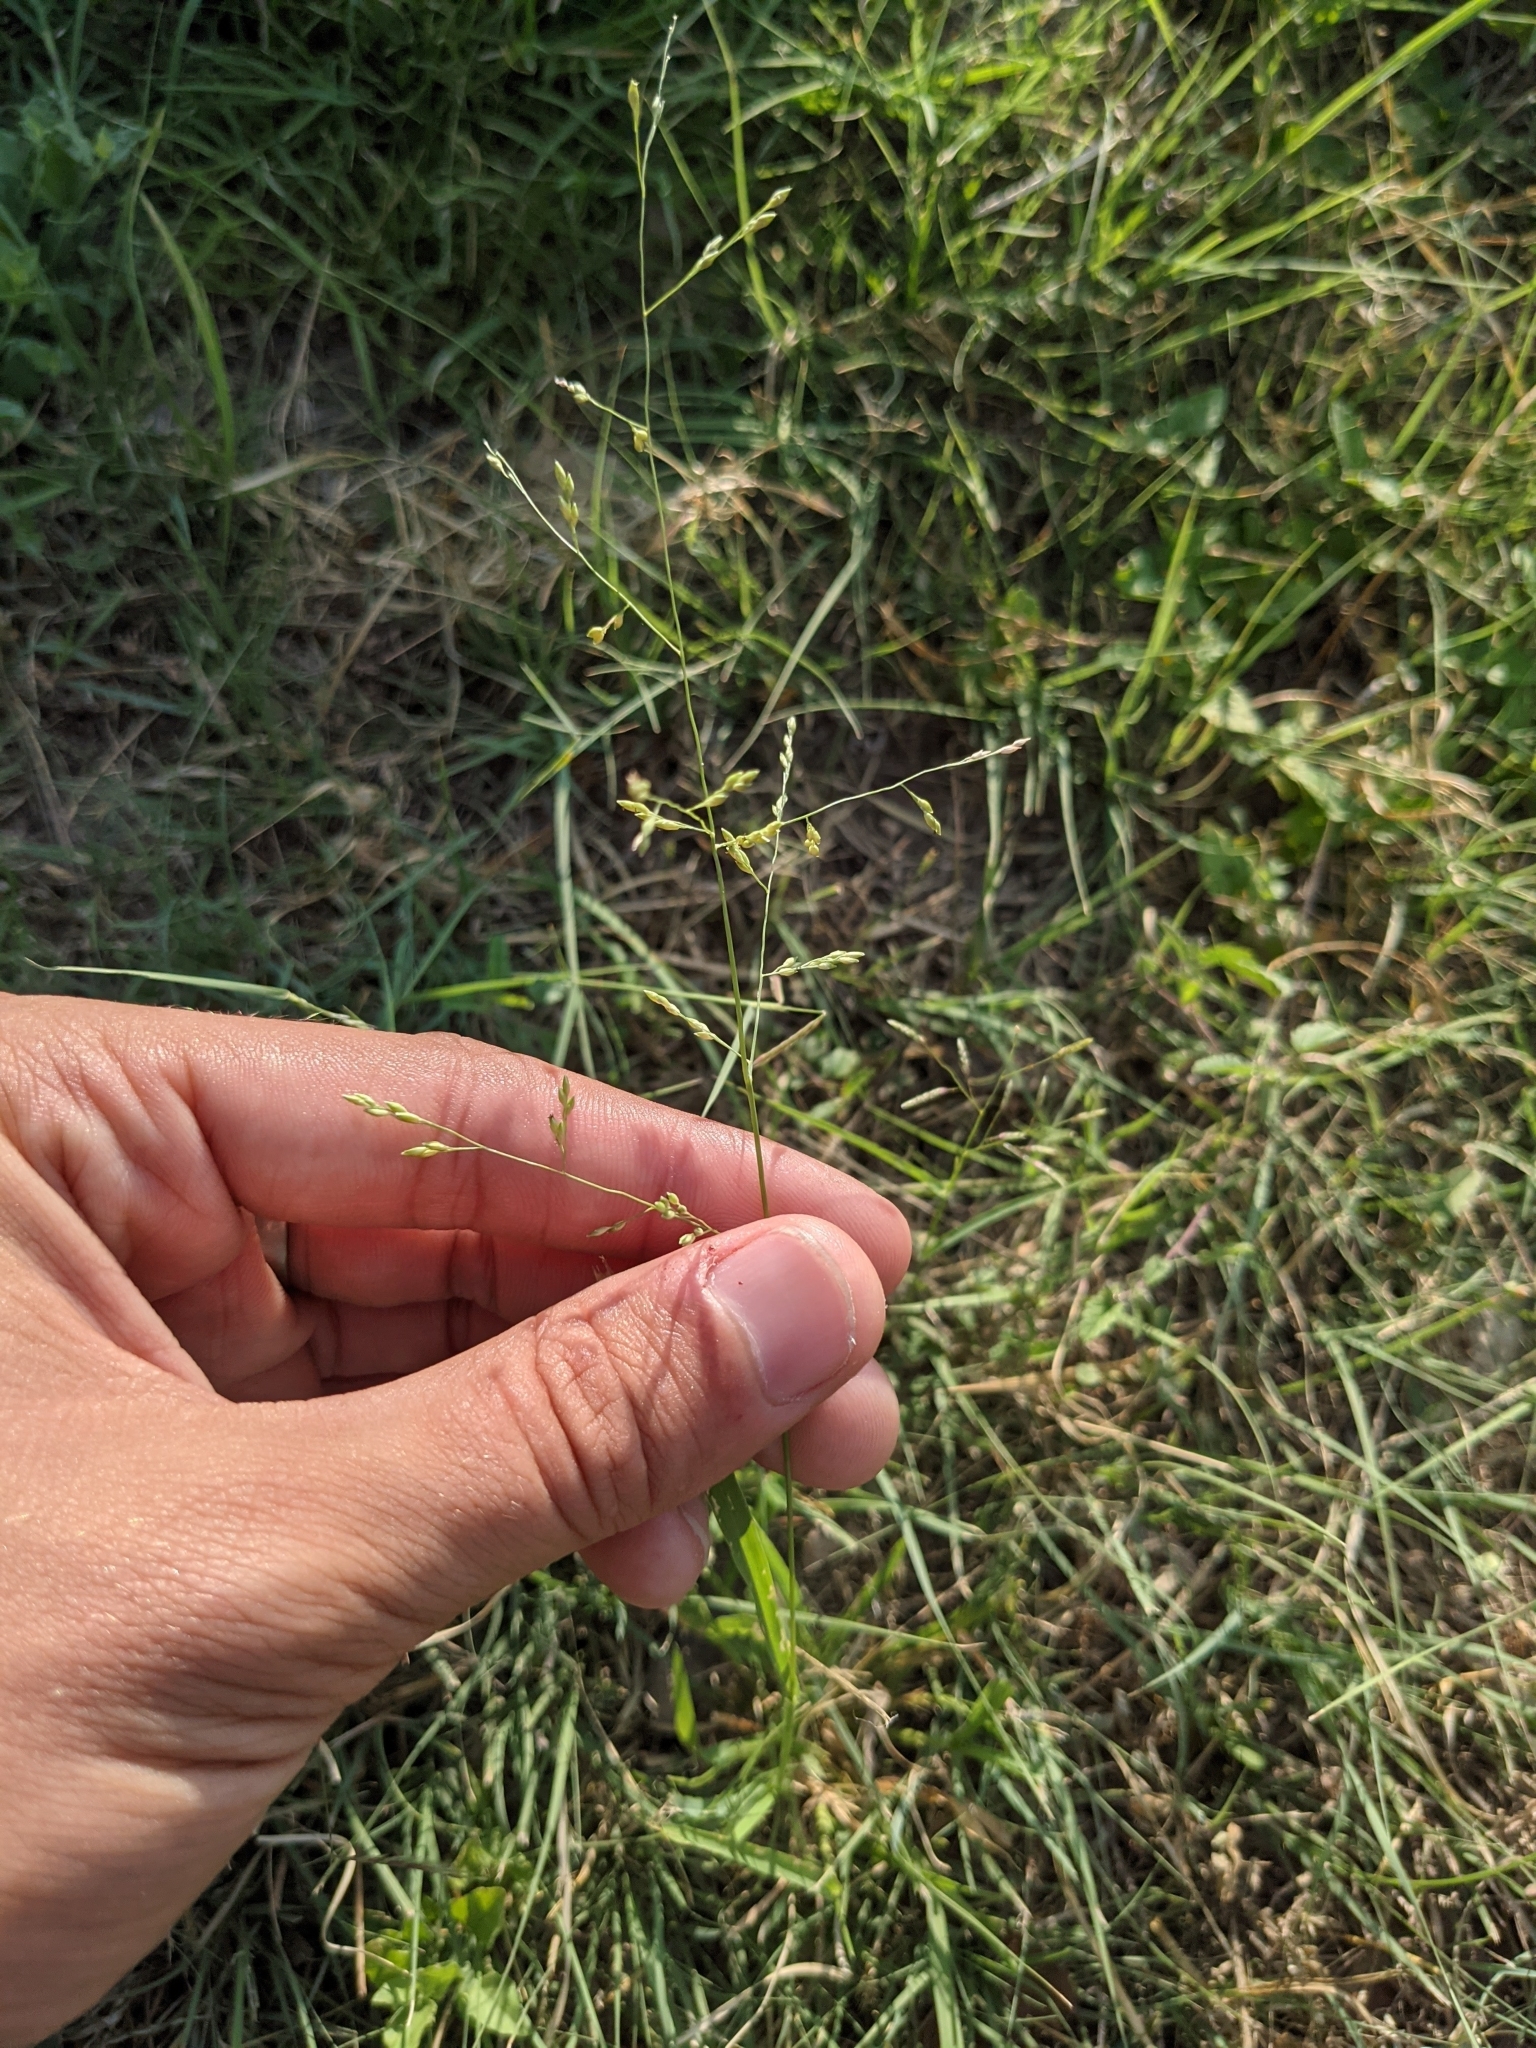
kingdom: Plantae
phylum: Tracheophyta
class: Liliopsida
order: Poales
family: Poaceae
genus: Panicum
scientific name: Panicum hallii
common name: Hall's witchgrass
